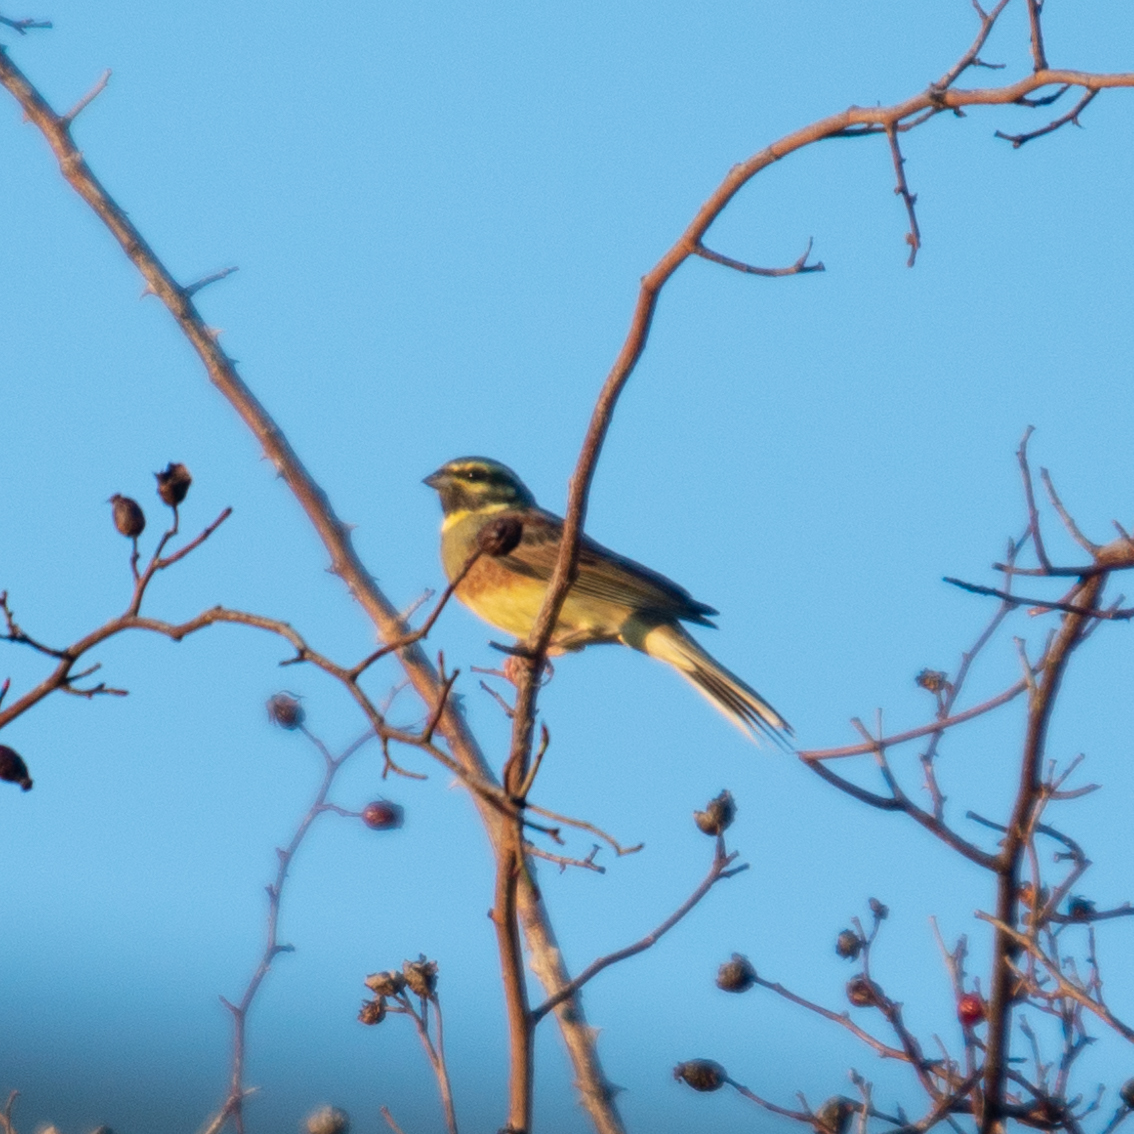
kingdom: Animalia
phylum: Chordata
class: Aves
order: Passeriformes
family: Emberizidae
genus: Emberiza
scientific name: Emberiza cirlus
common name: Cirl bunting
